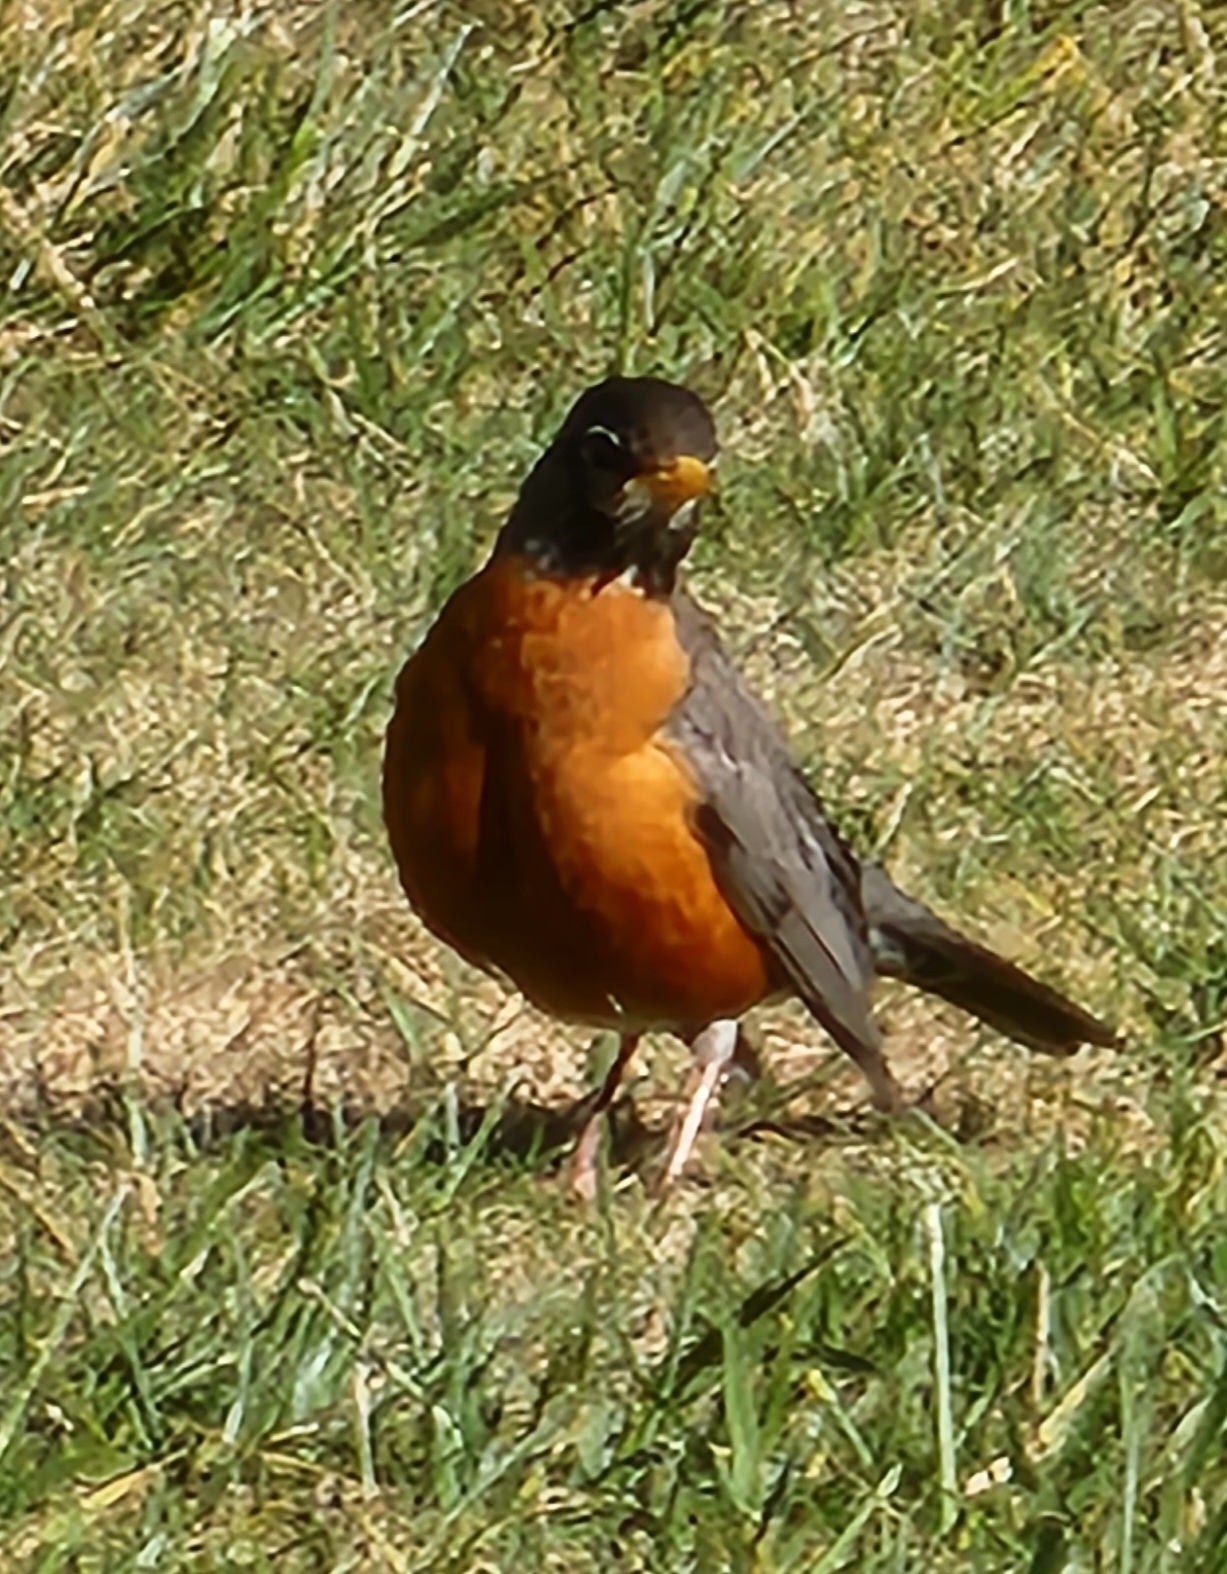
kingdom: Animalia
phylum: Chordata
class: Aves
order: Passeriformes
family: Turdidae
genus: Turdus
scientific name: Turdus migratorius
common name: American robin
